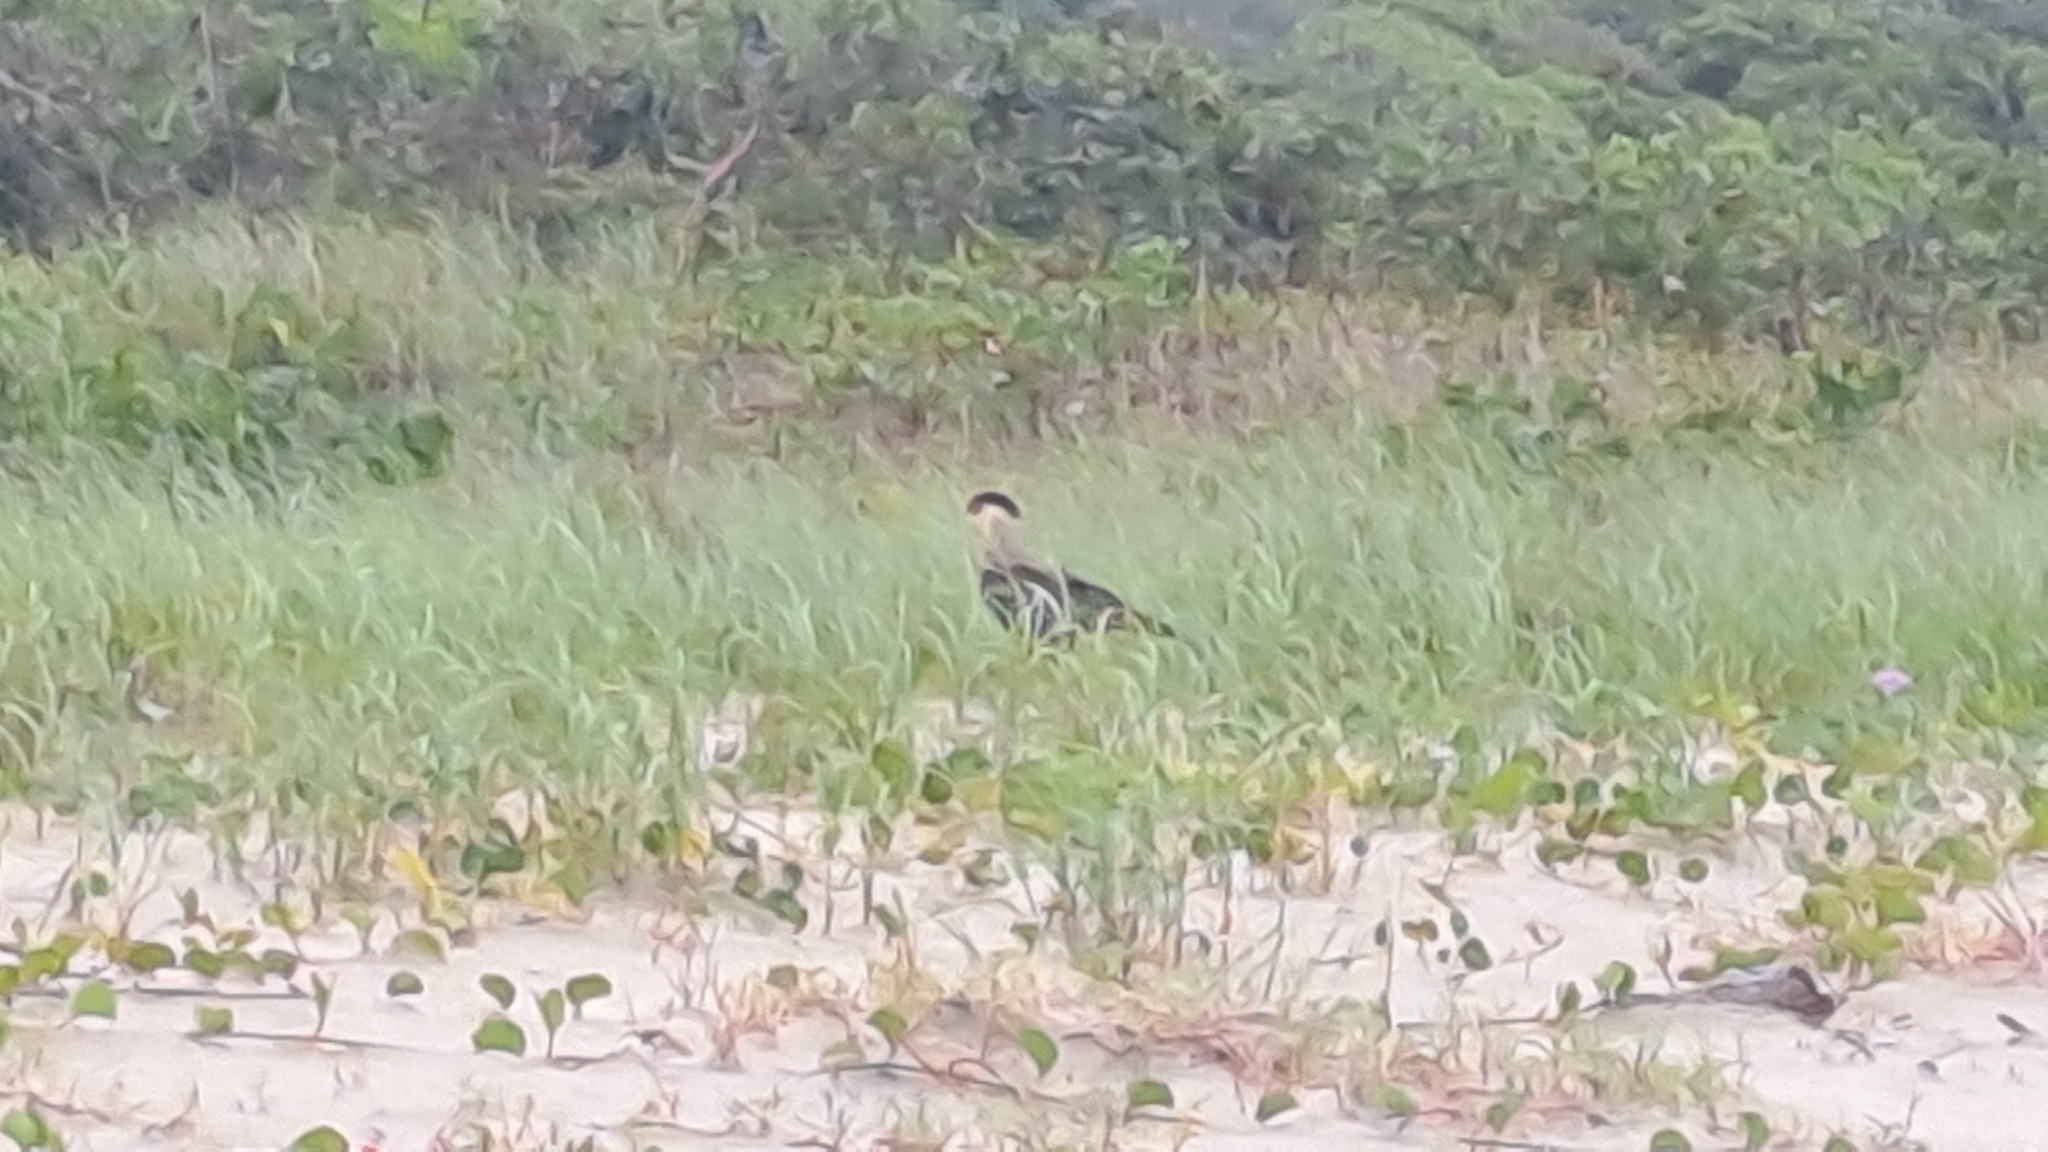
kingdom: Animalia
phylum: Chordata
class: Aves
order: Falconiformes
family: Falconidae
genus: Caracara
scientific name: Caracara plancus
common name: Southern caracara
